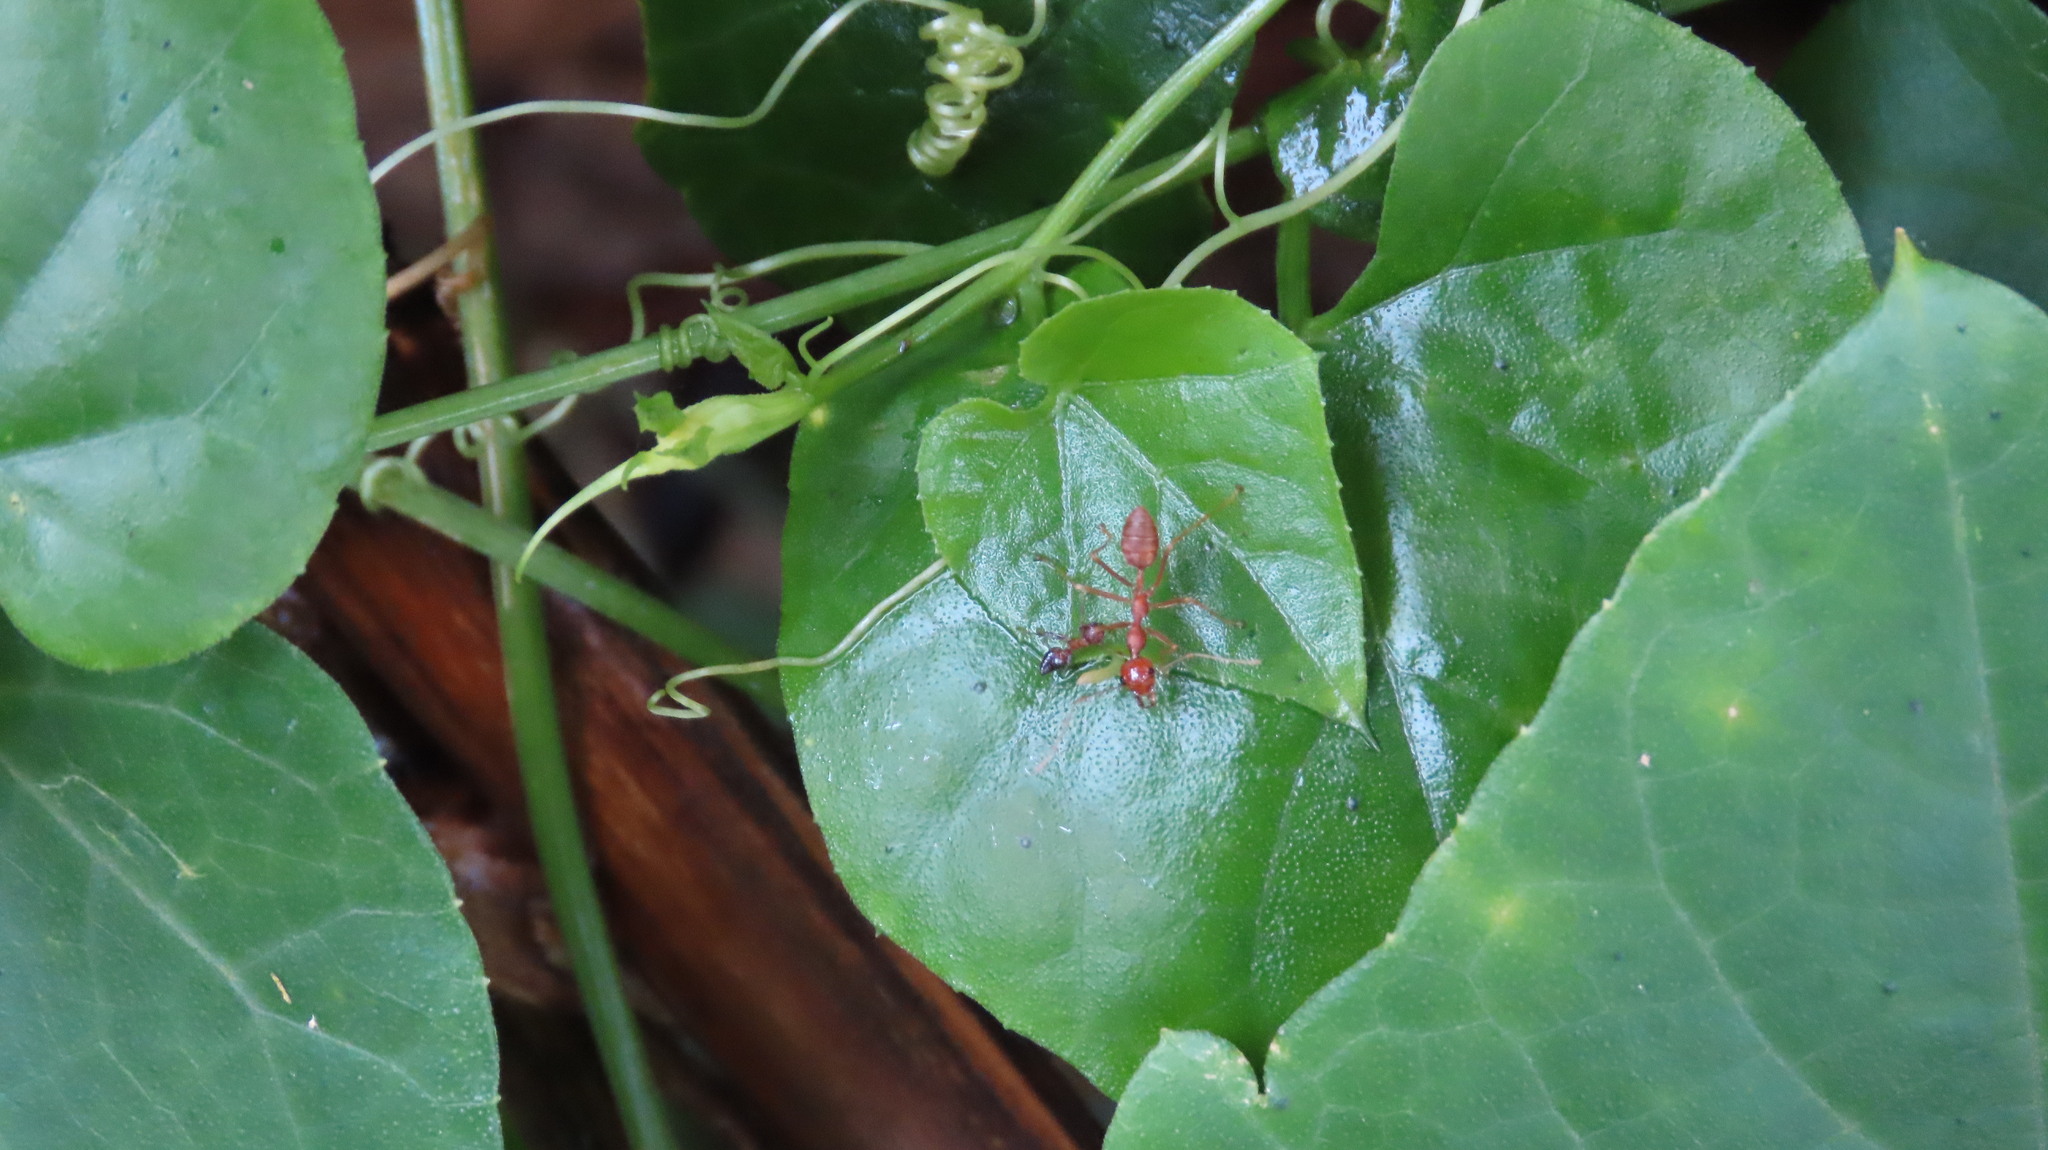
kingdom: Animalia
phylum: Arthropoda
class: Insecta
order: Hymenoptera
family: Formicidae
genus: Oecophylla
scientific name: Oecophylla smaragdina
